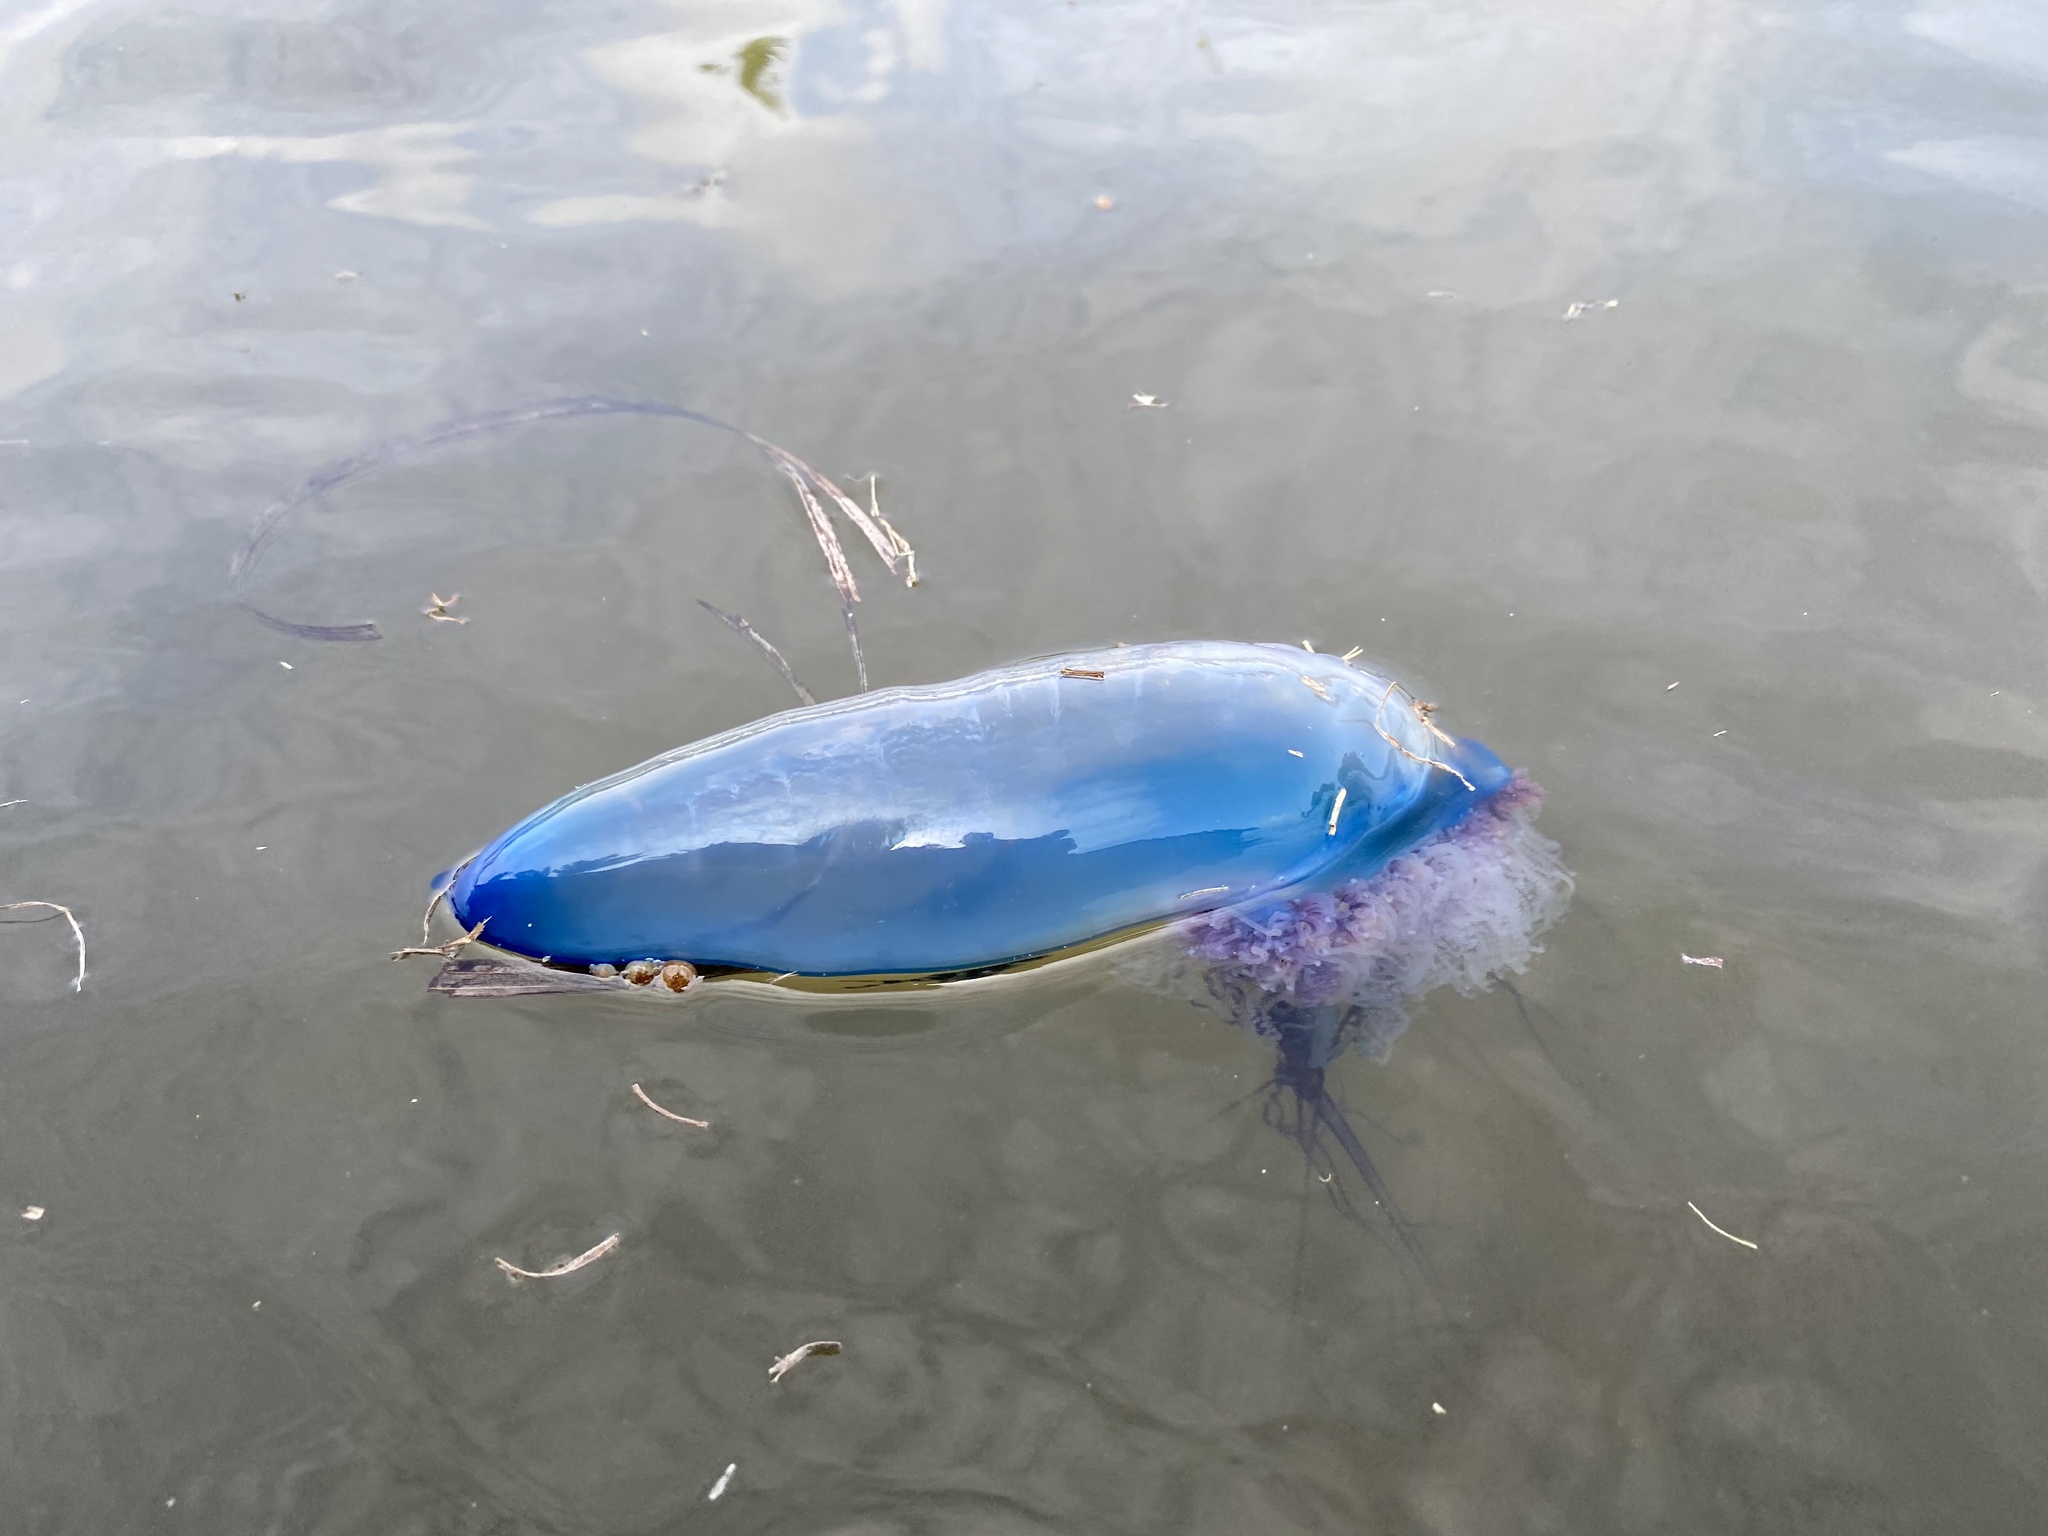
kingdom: Animalia
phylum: Cnidaria
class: Hydrozoa
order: Siphonophorae
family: Physaliidae
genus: Physalia
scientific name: Physalia physalis
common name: Portuguese man-of-war
